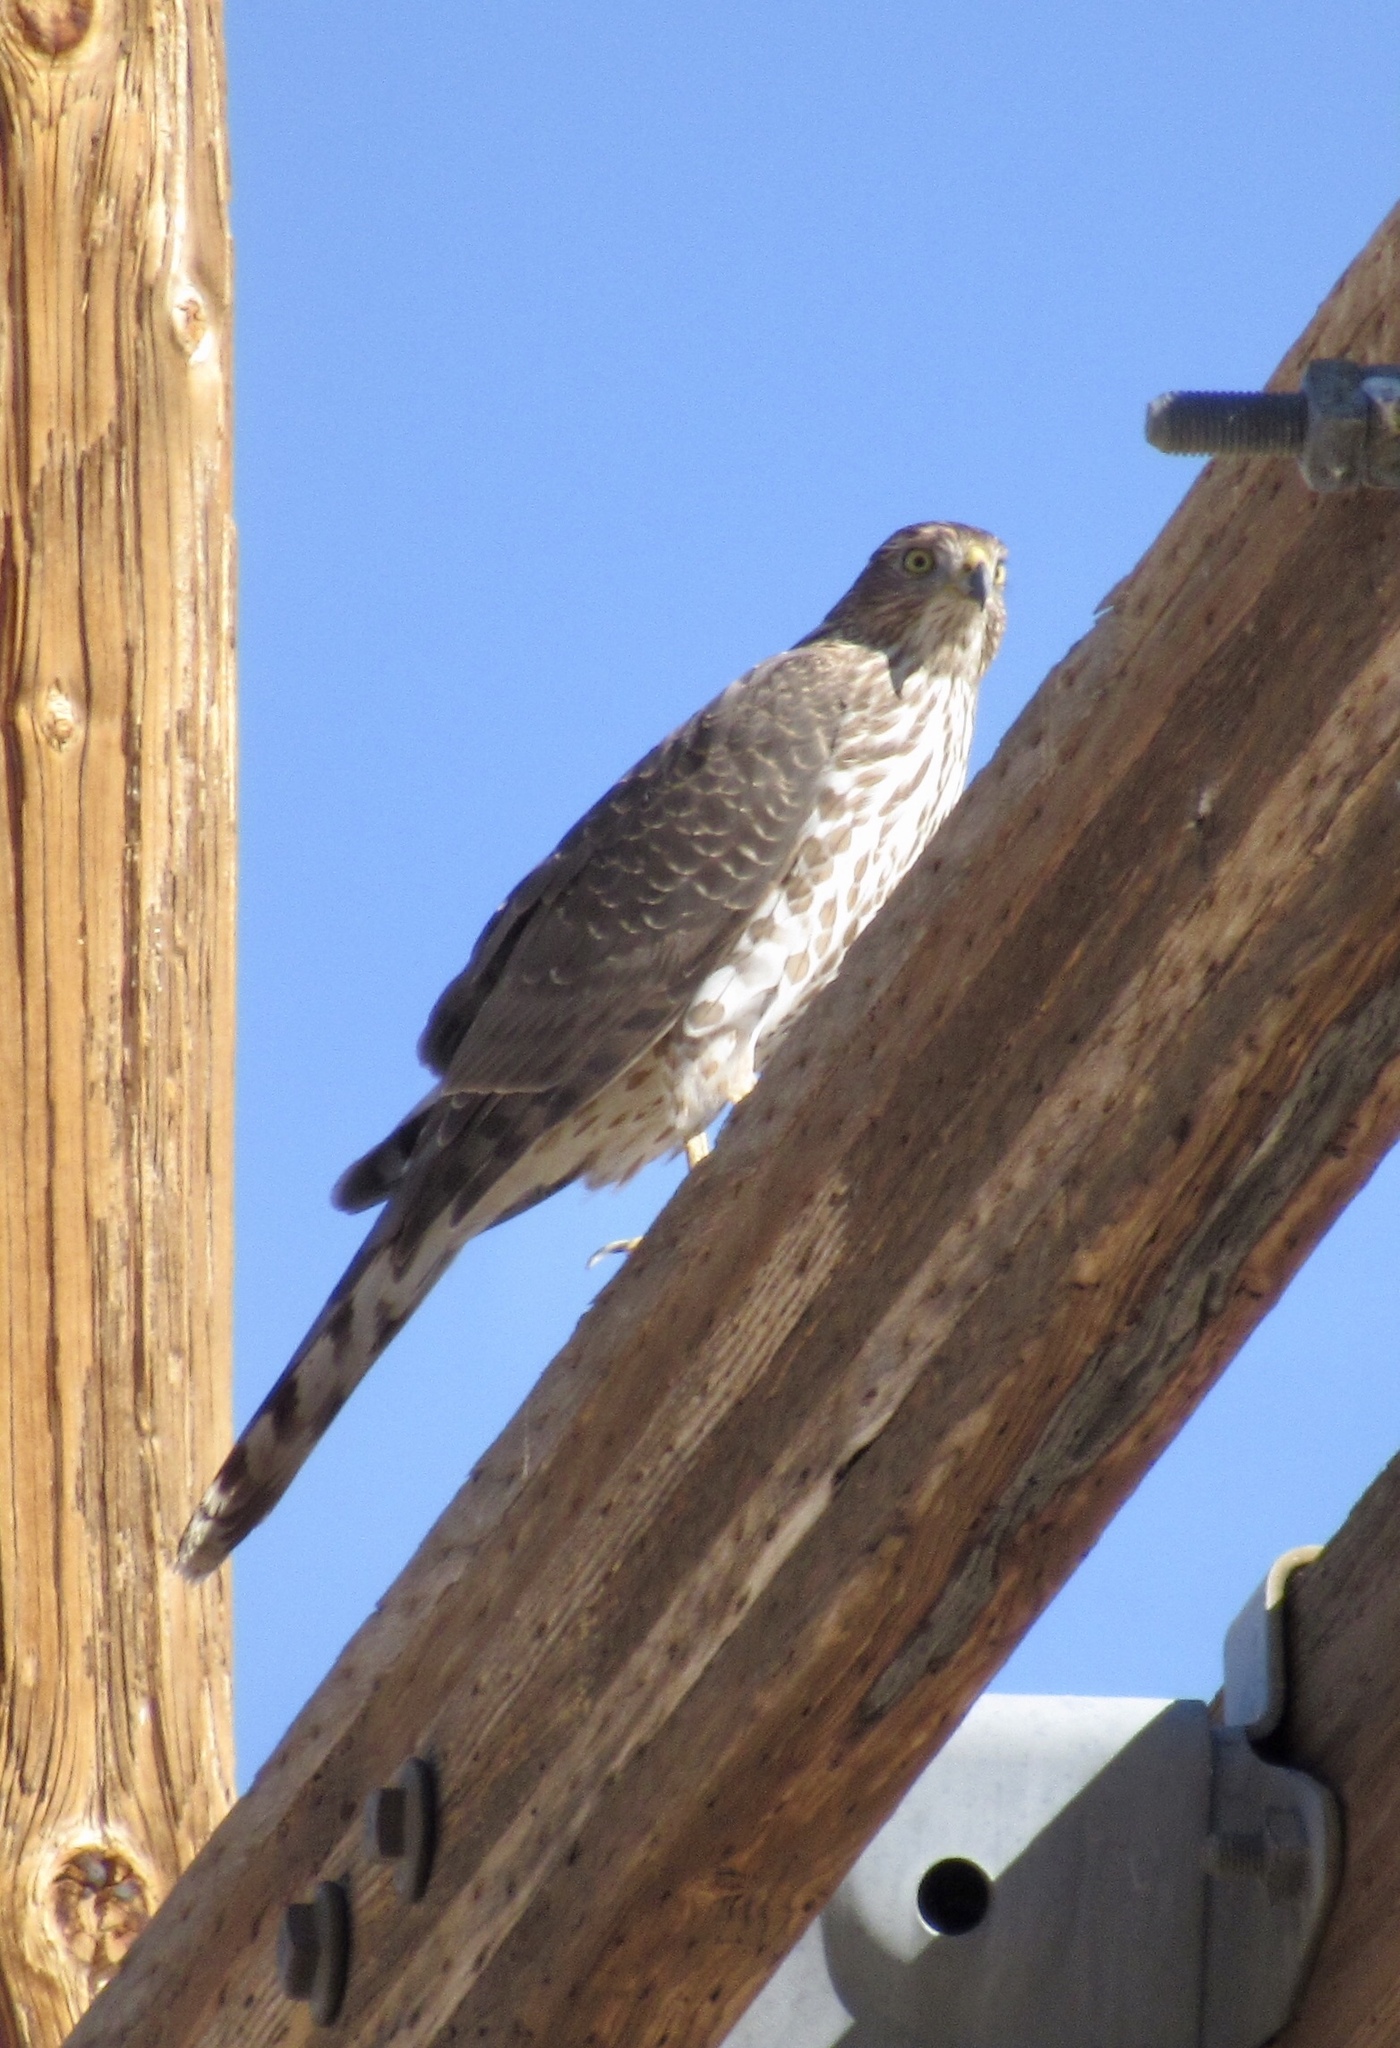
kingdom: Animalia
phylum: Chordata
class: Aves
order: Accipitriformes
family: Accipitridae
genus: Accipiter
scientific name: Accipiter cooperii
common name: Cooper's hawk
